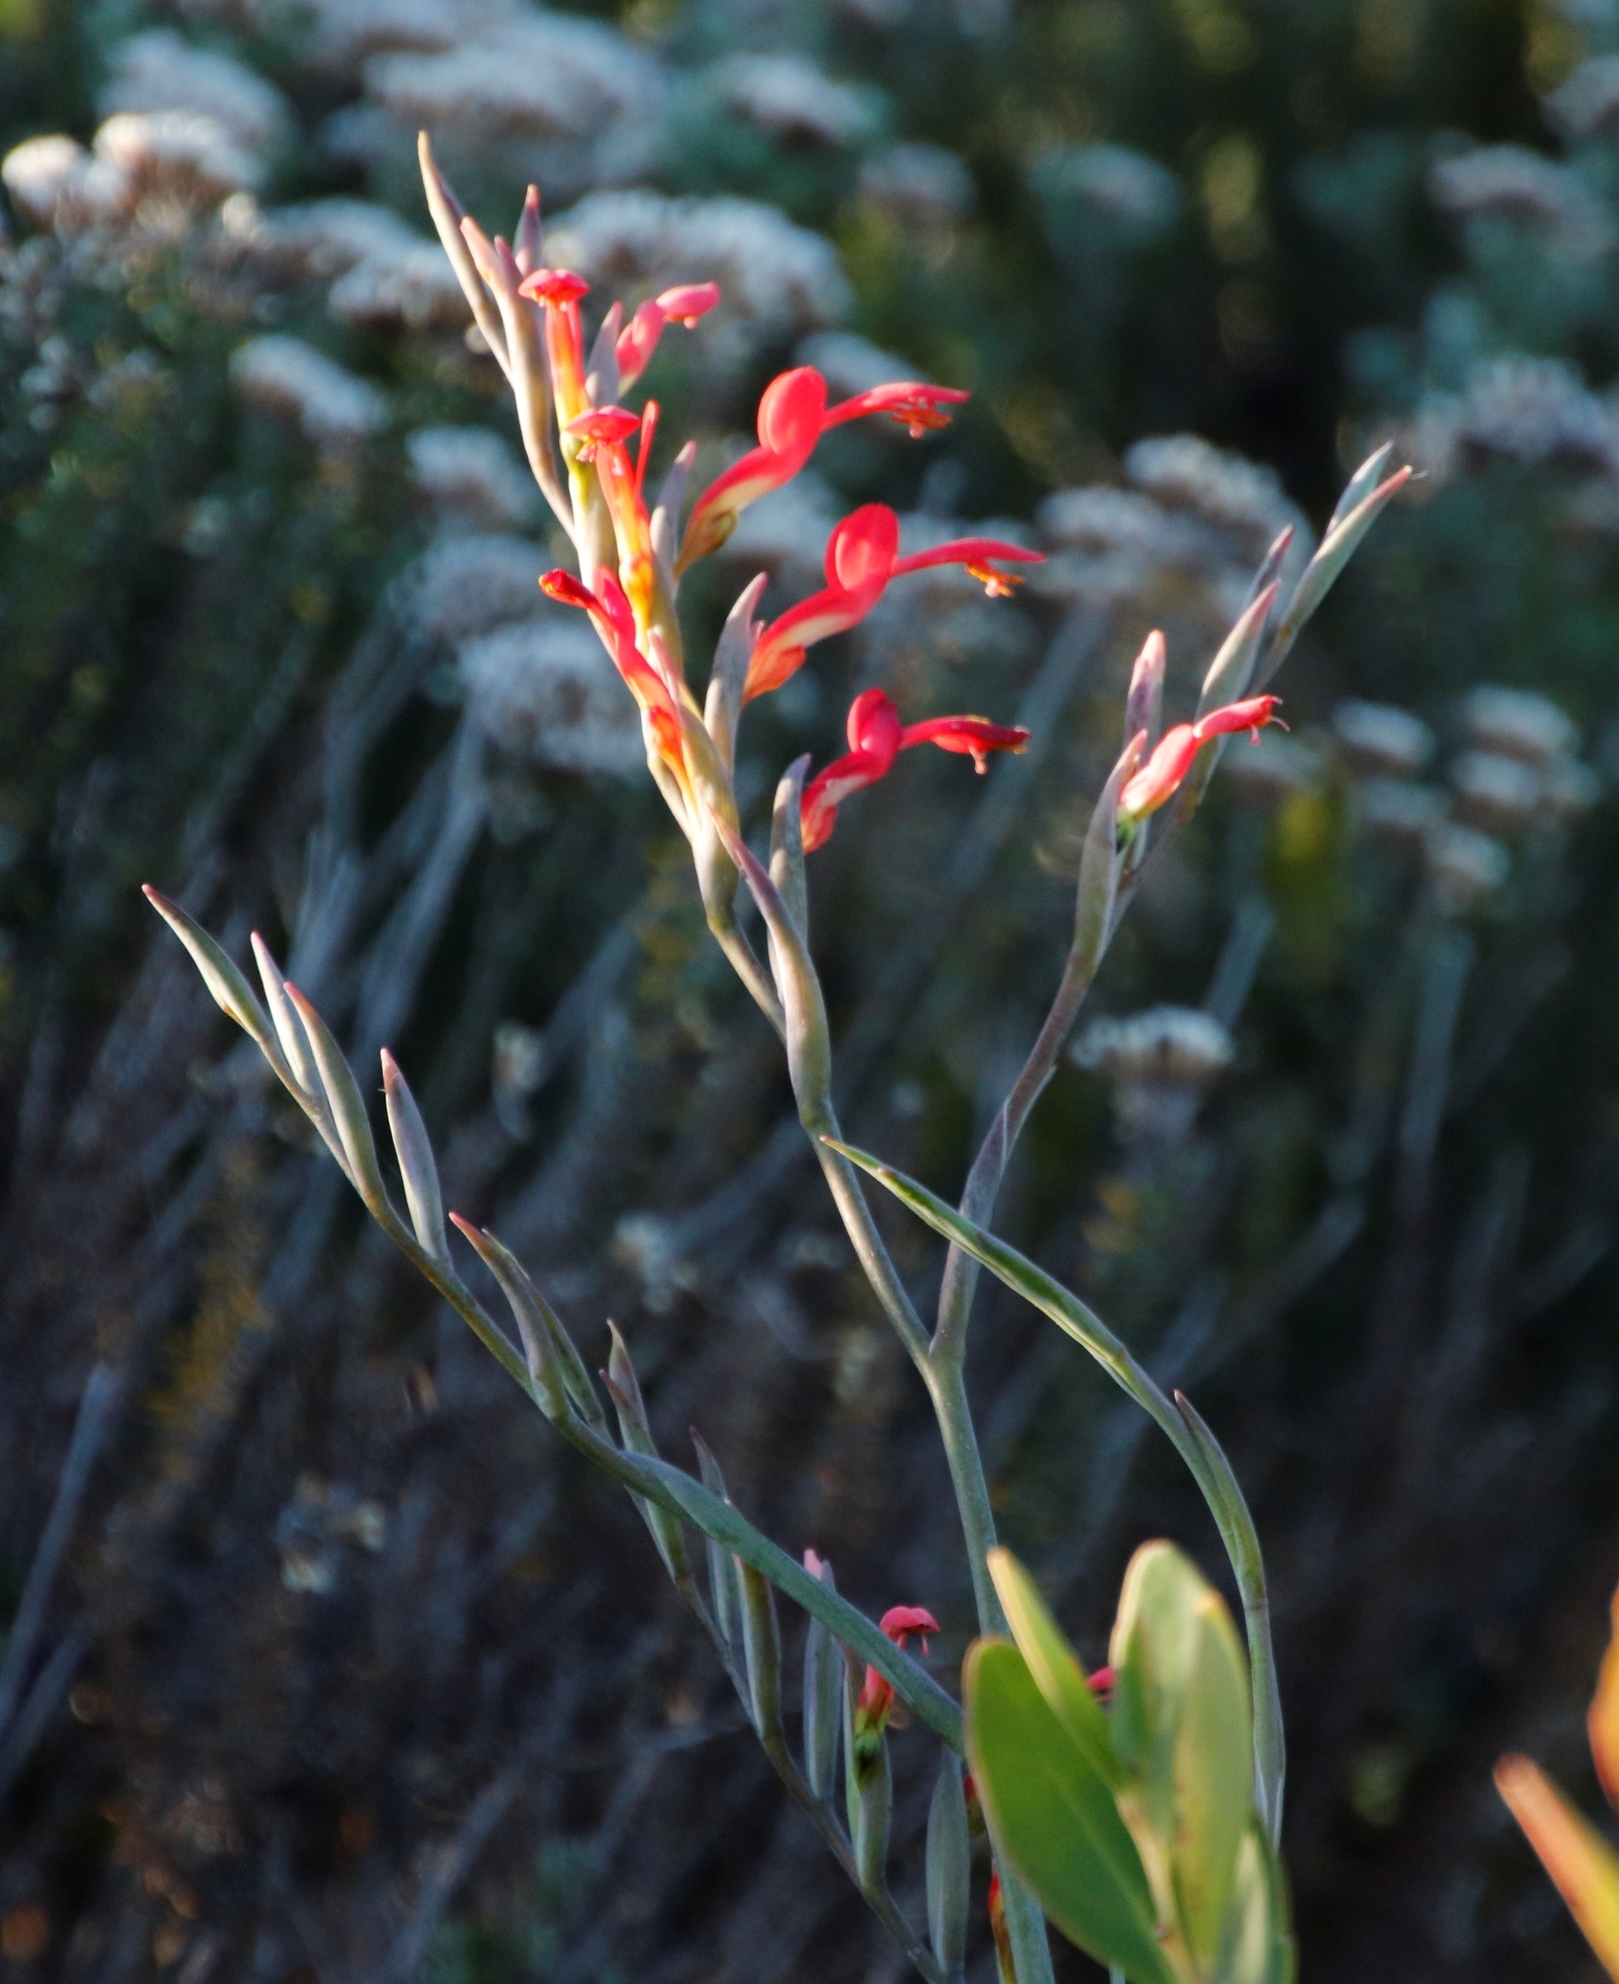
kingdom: Plantae
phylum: Tracheophyta
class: Liliopsida
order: Asparagales
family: Iridaceae
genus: Gladiolus
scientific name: Gladiolus cunonius
